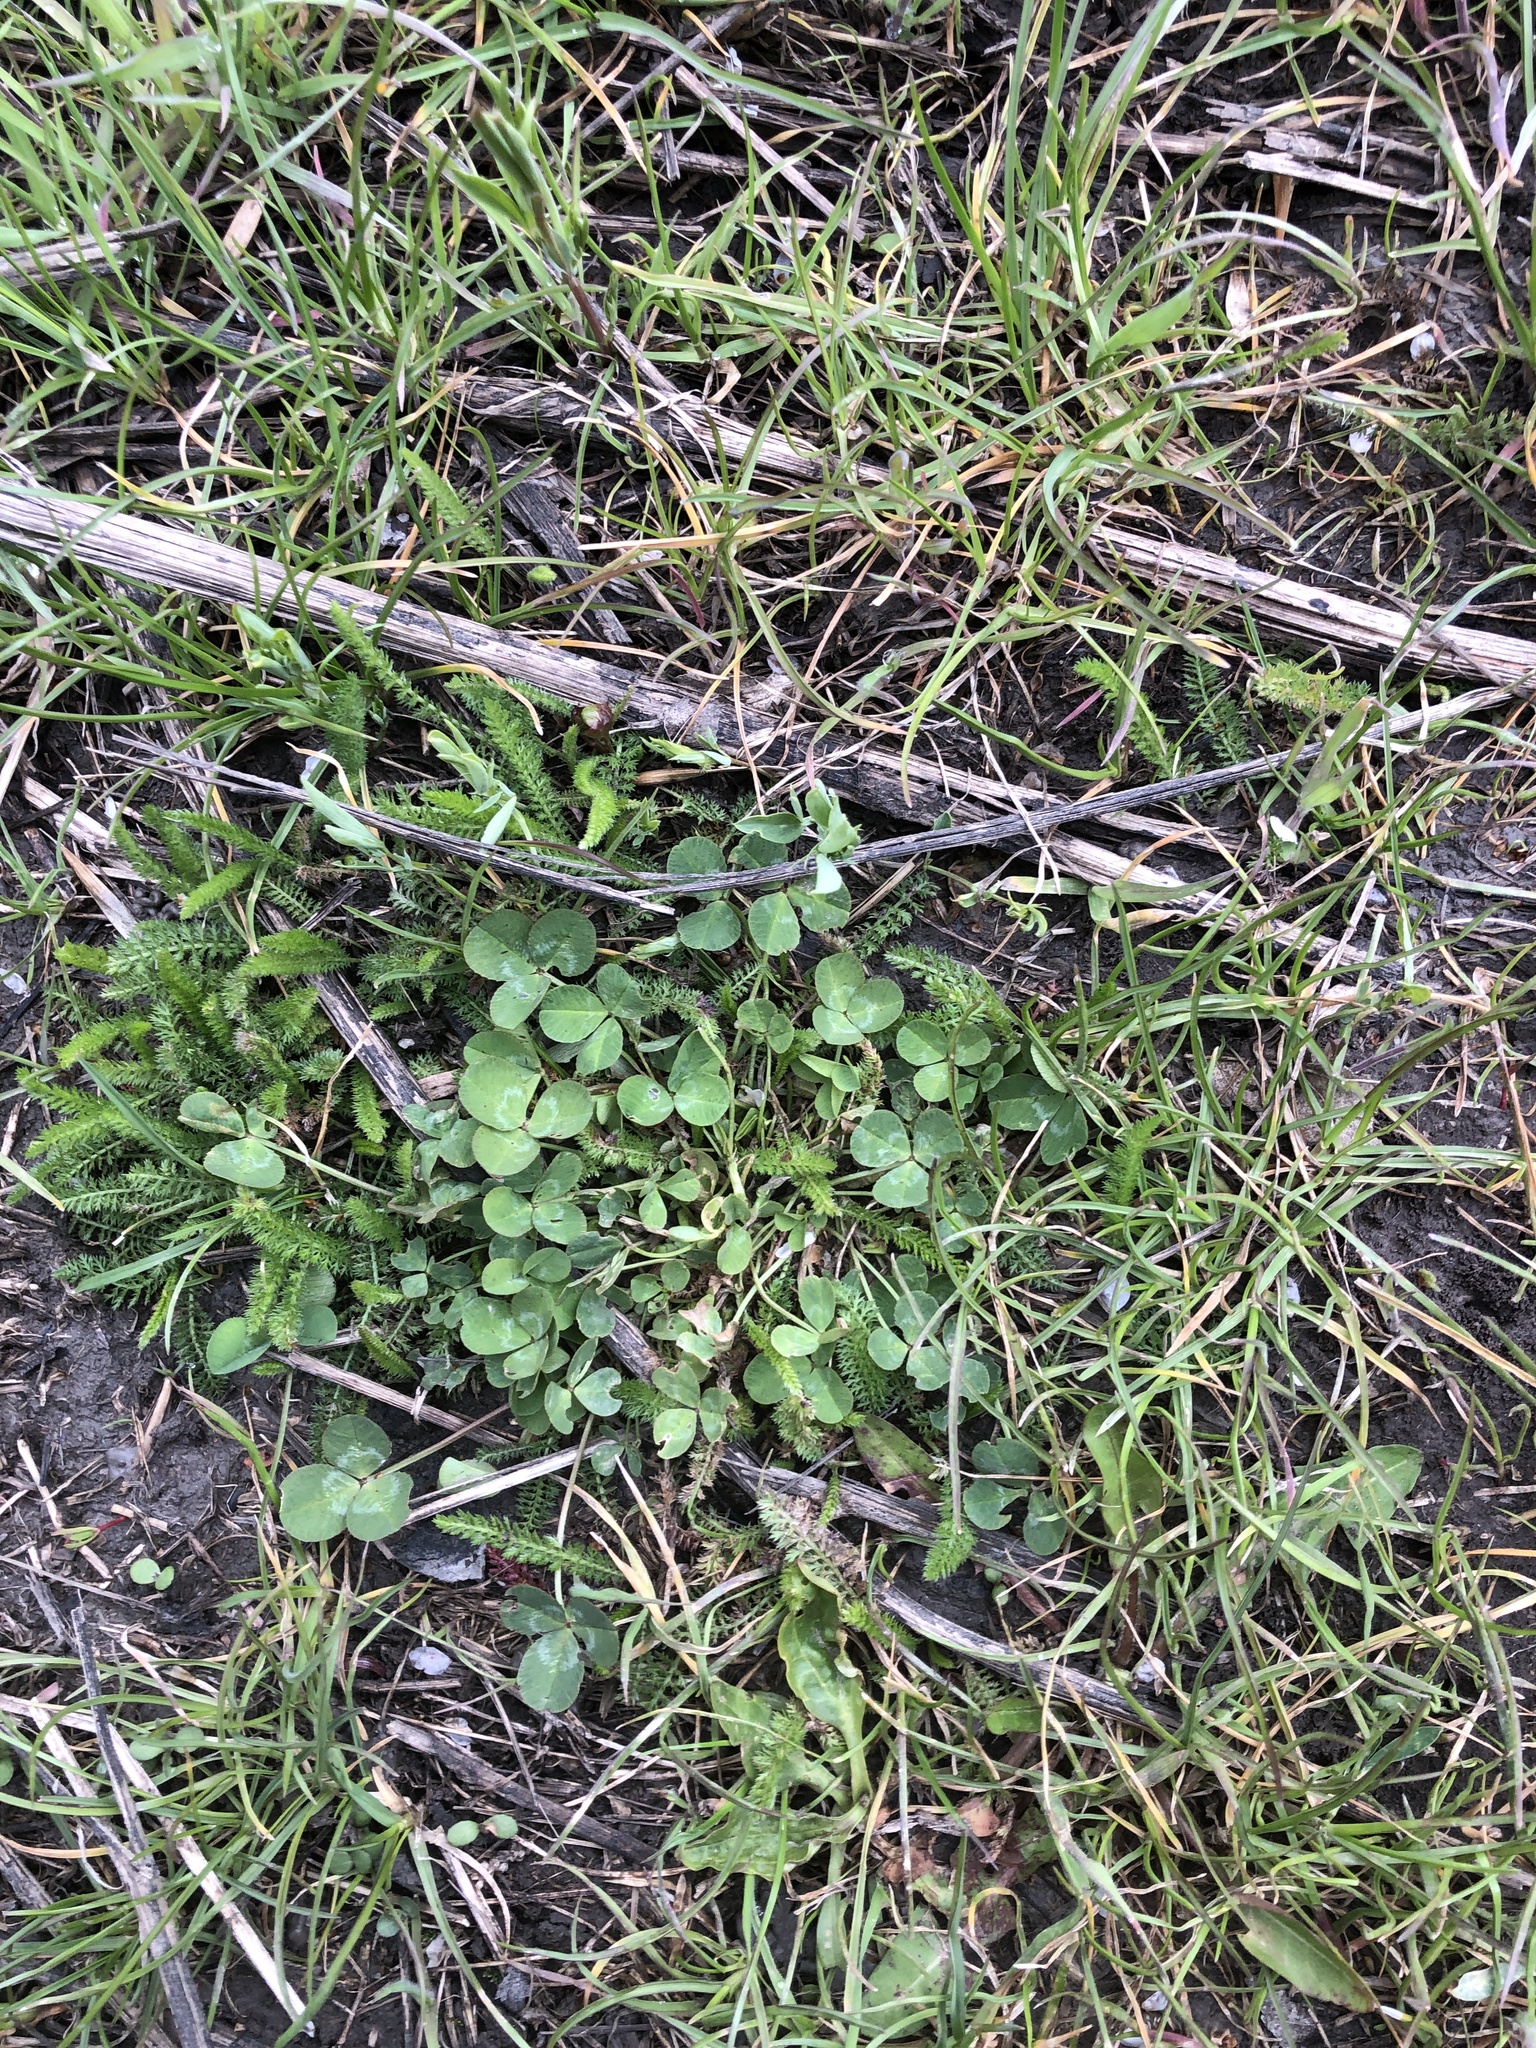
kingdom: Plantae
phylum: Tracheophyta
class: Magnoliopsida
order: Fabales
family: Fabaceae
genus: Trifolium
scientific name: Trifolium repens
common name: White clover
